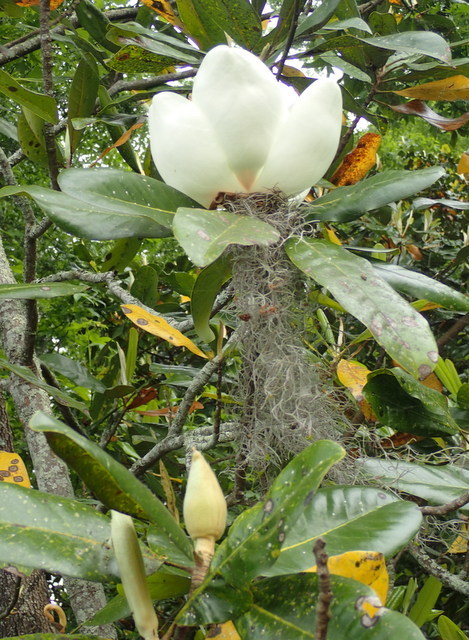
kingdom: Plantae
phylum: Tracheophyta
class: Magnoliopsida
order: Magnoliales
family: Magnoliaceae
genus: Magnolia
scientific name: Magnolia grandiflora
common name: Southern magnolia
